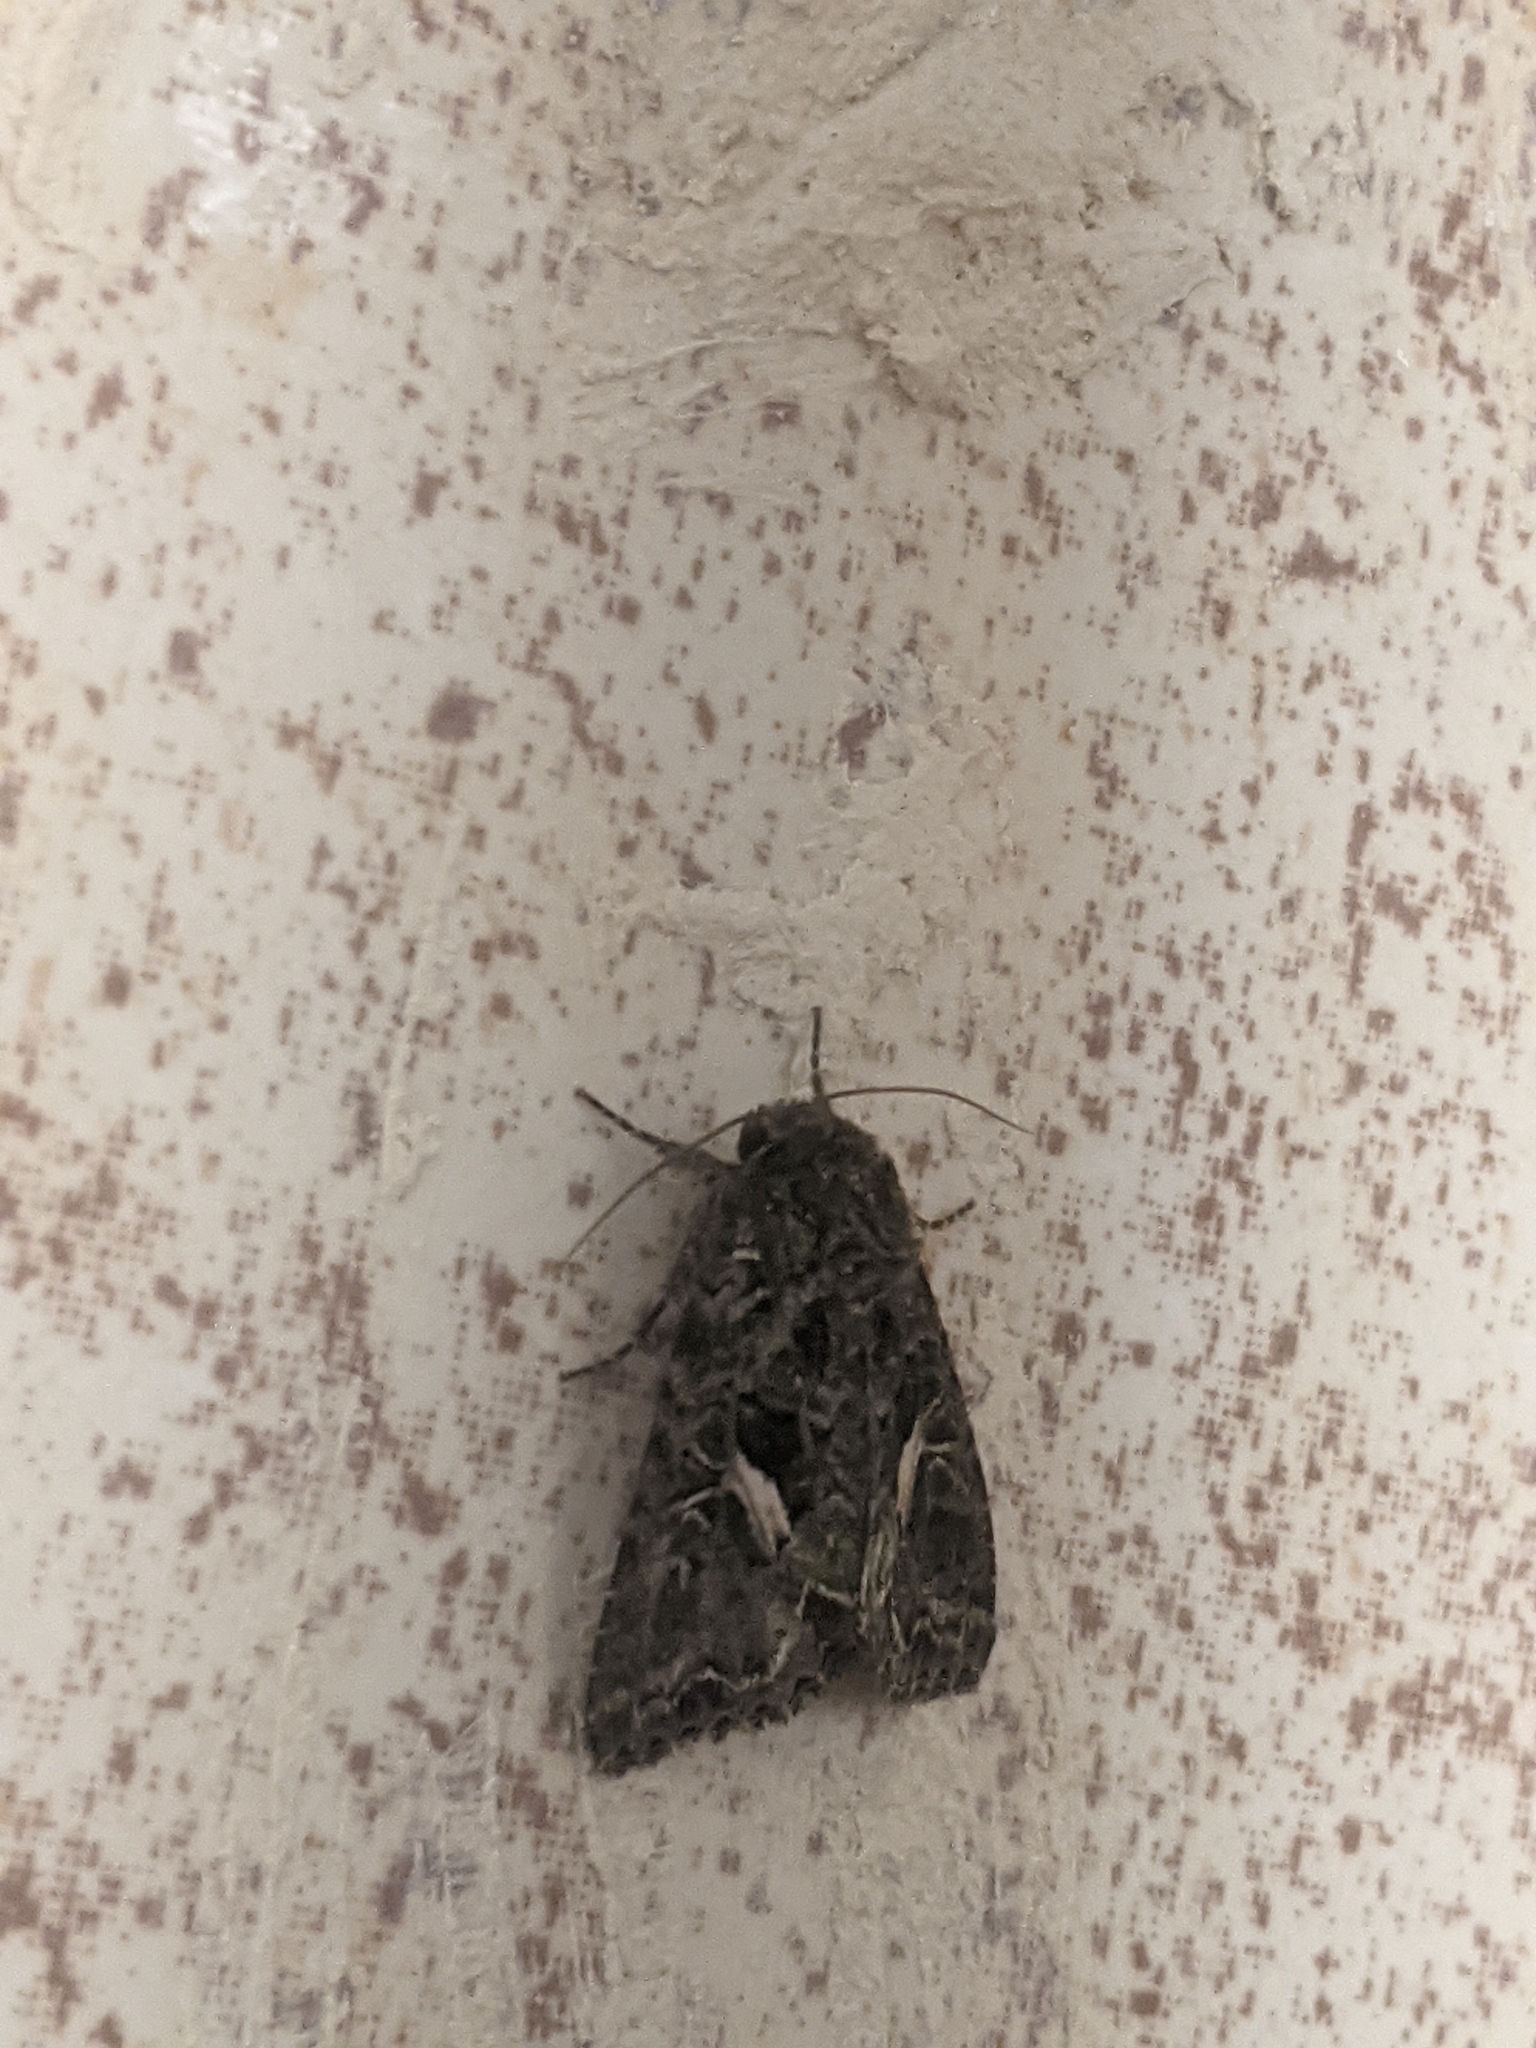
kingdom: Animalia
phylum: Arthropoda
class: Insecta
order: Lepidoptera
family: Noctuidae
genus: Trachea
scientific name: Trachea atriplicis
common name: Orache moth
